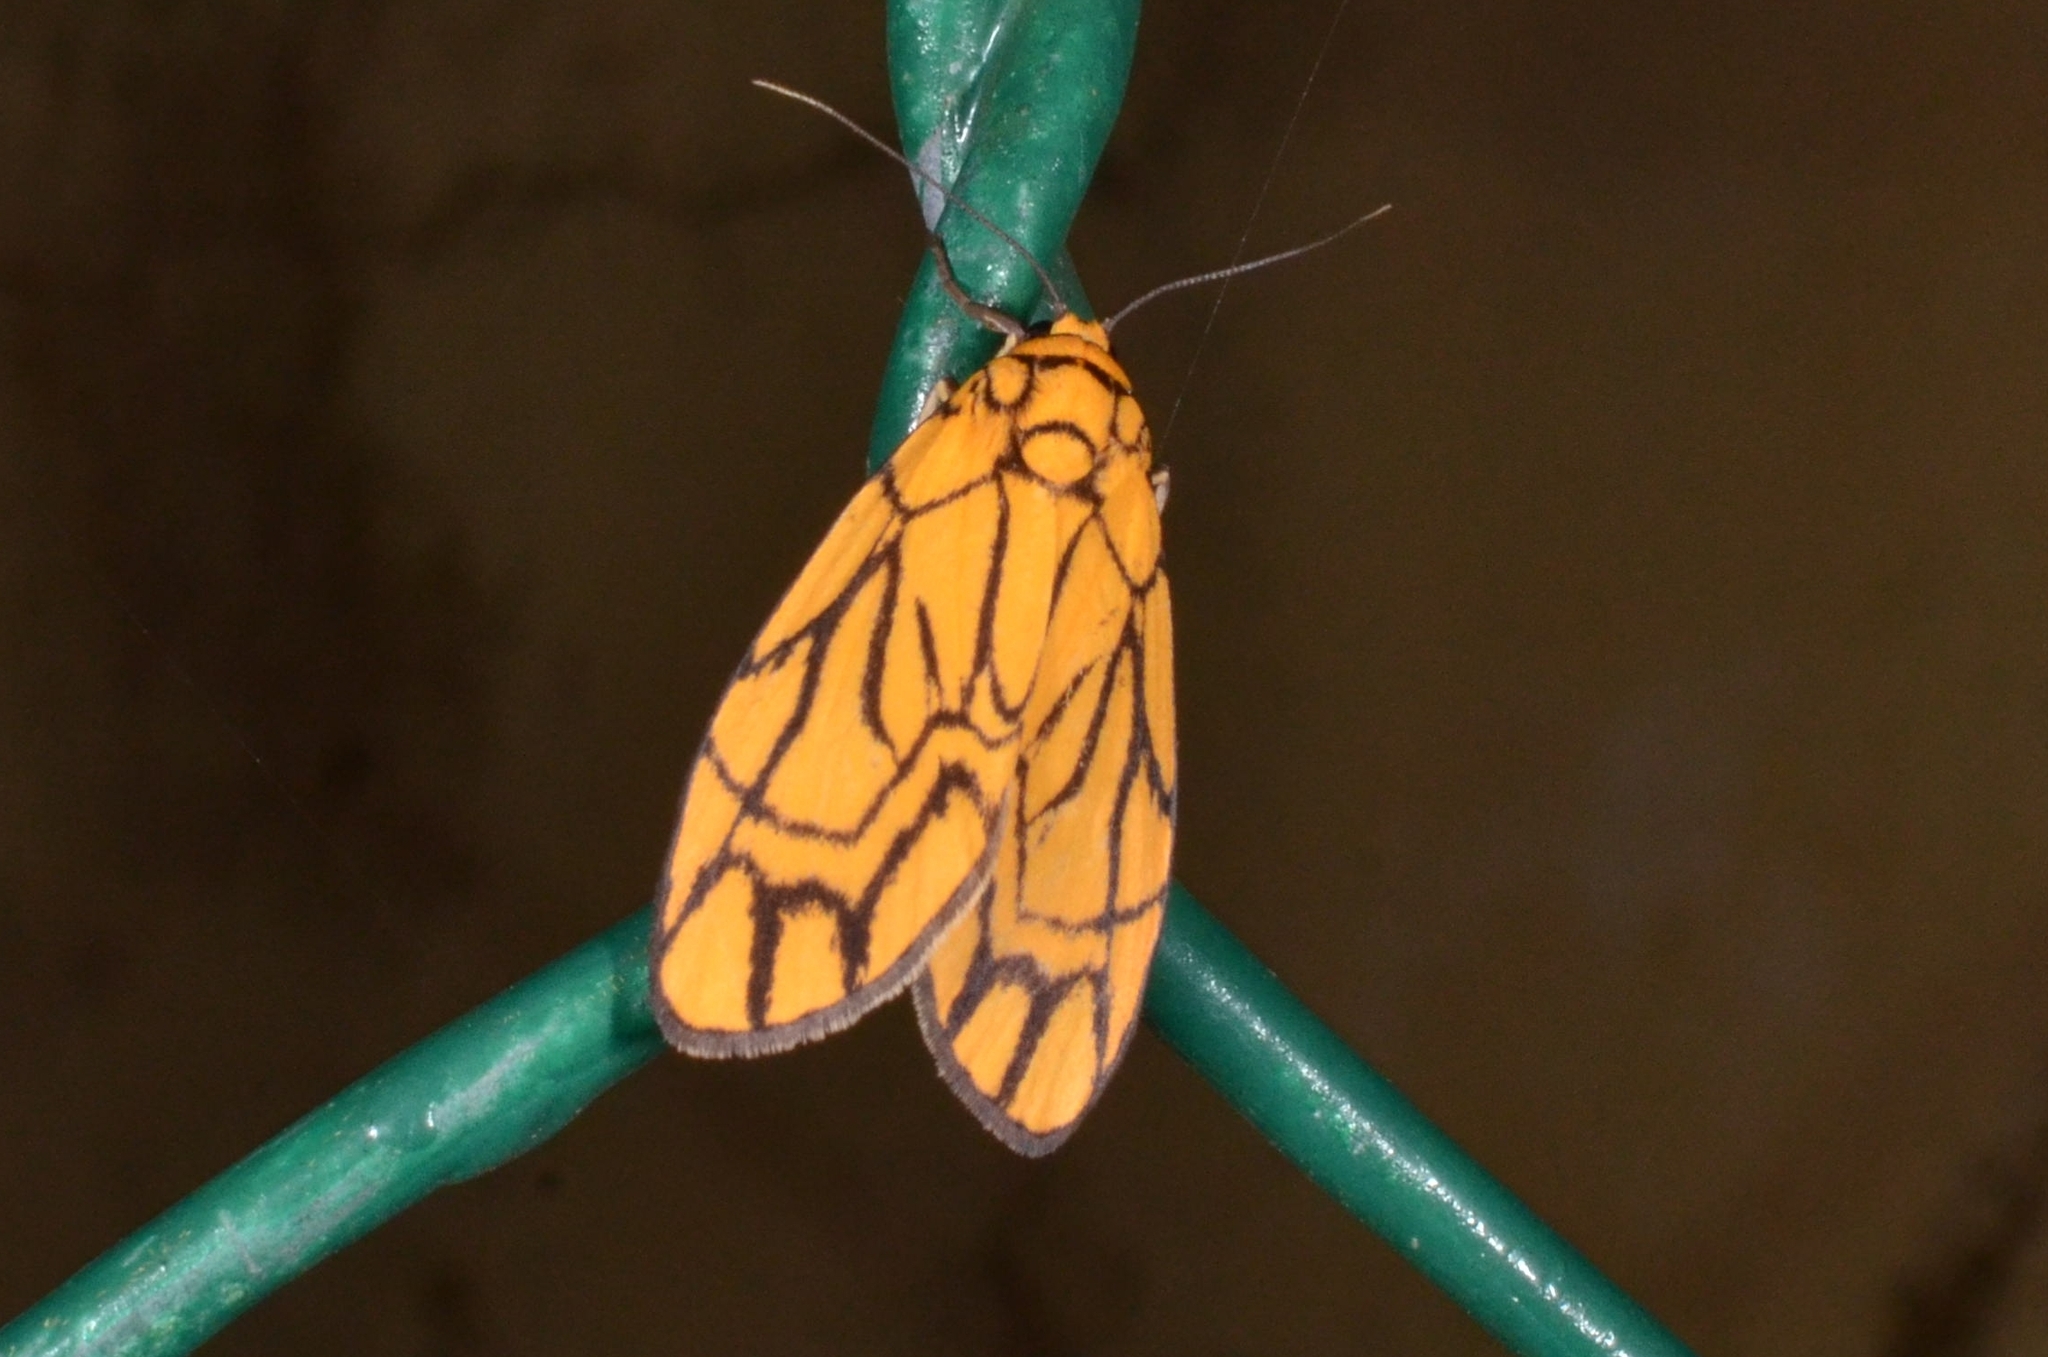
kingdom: Animalia
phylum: Arthropoda
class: Insecta
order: Lepidoptera
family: Erebidae
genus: Cyme
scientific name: Cyme euprepioides
